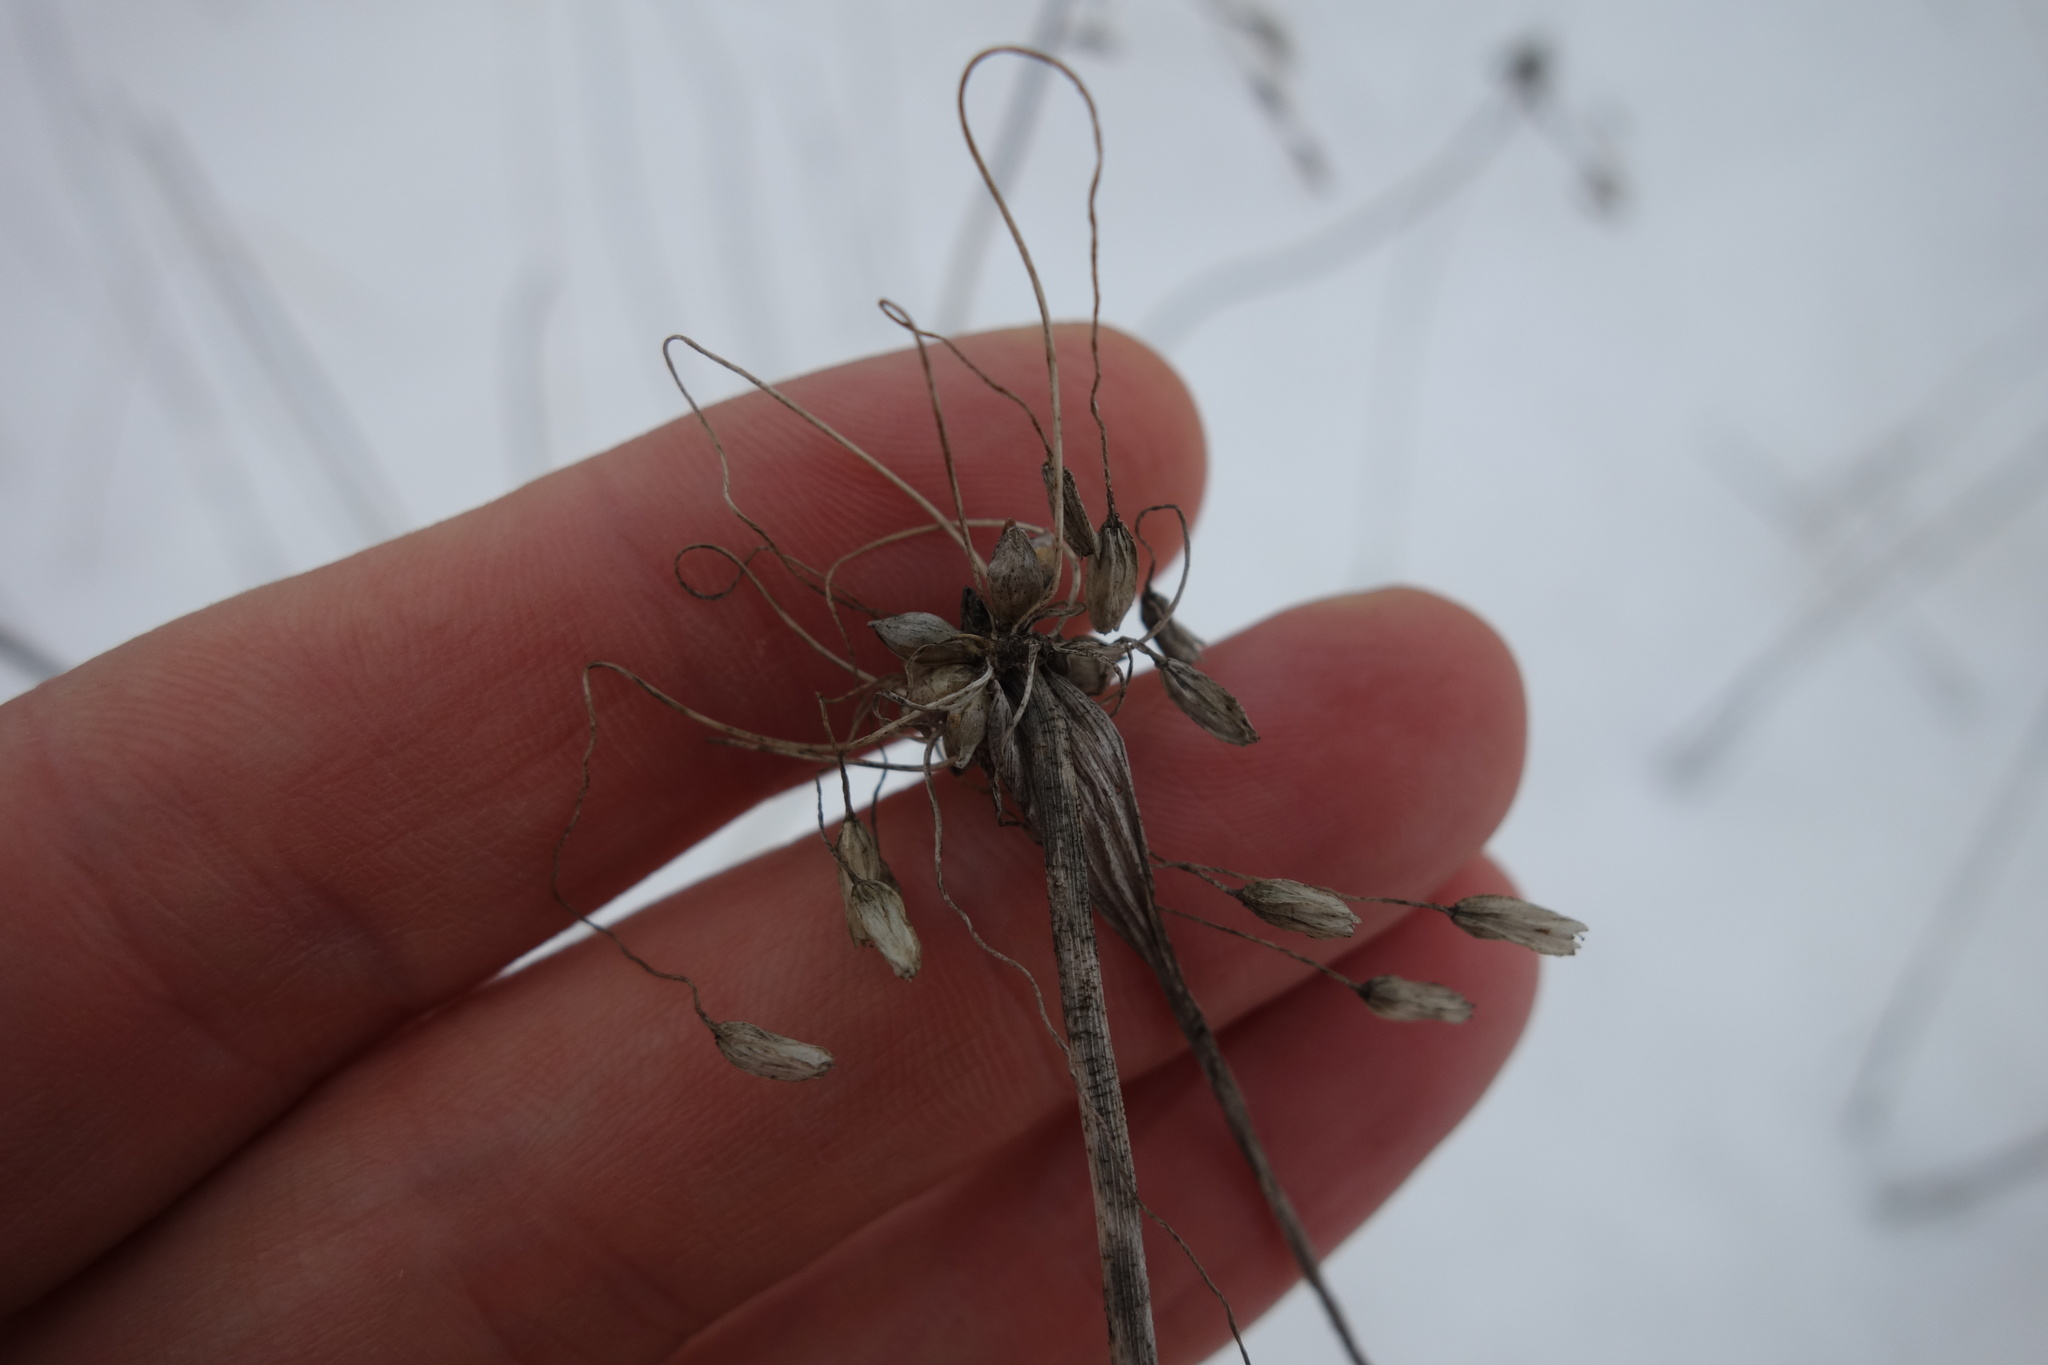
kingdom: Plantae
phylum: Tracheophyta
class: Liliopsida
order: Asparagales
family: Amaryllidaceae
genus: Allium
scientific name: Allium oleraceum
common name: Field garlic
